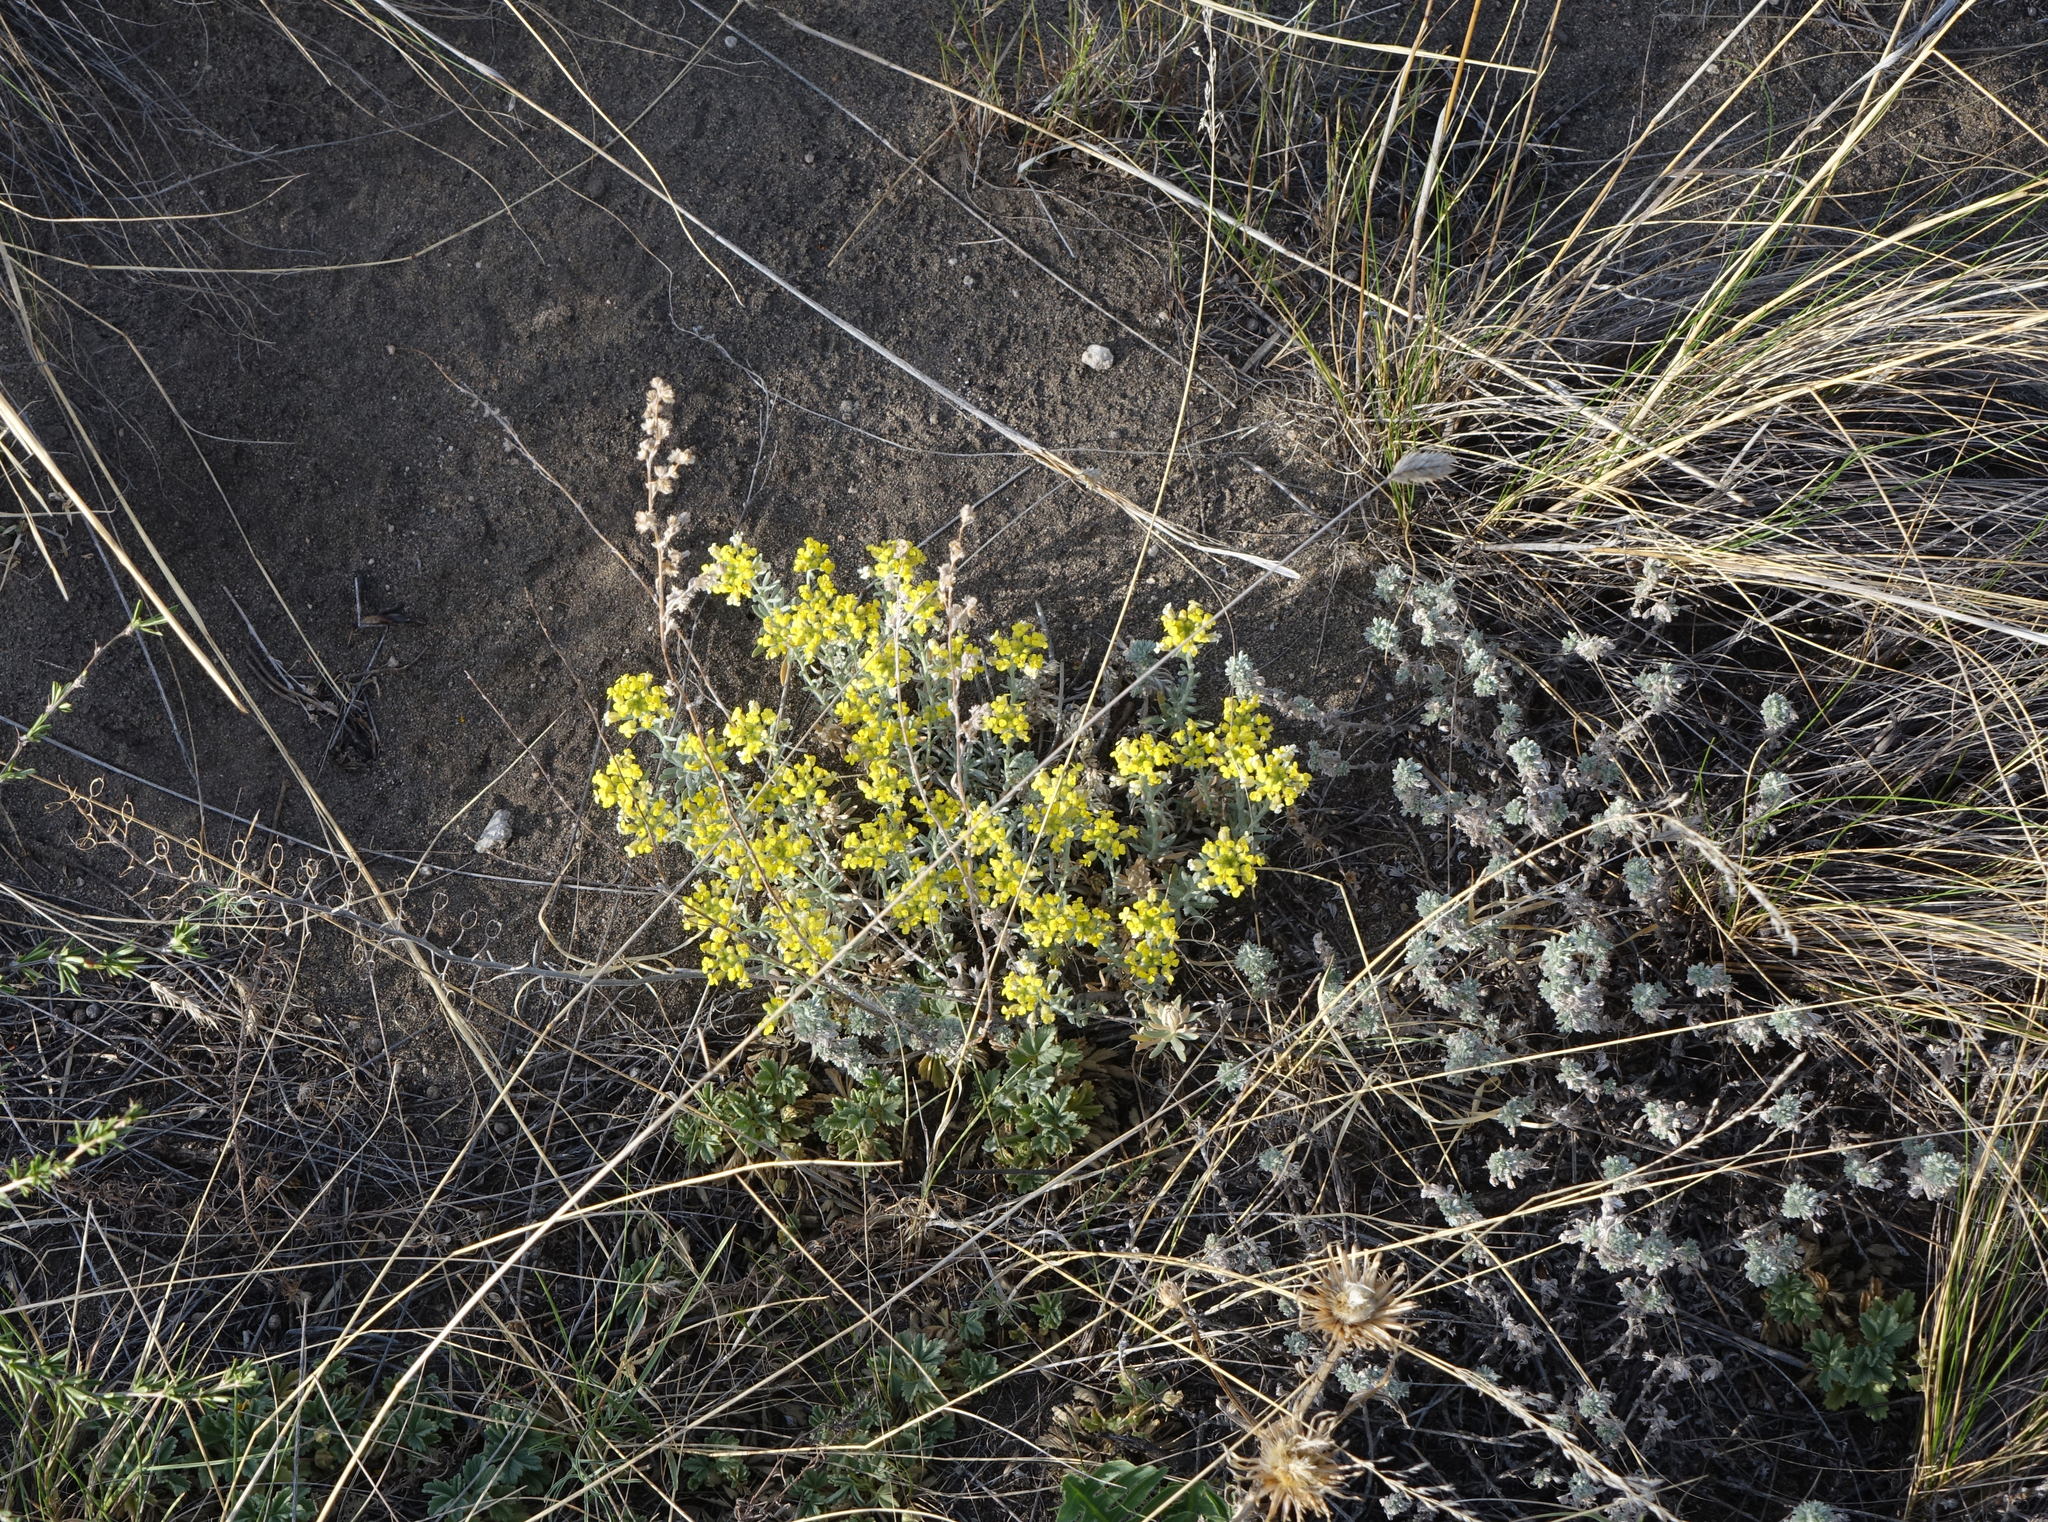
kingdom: Plantae
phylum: Tracheophyta
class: Magnoliopsida
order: Brassicales
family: Brassicaceae
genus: Alyssum
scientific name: Alyssum lenense
